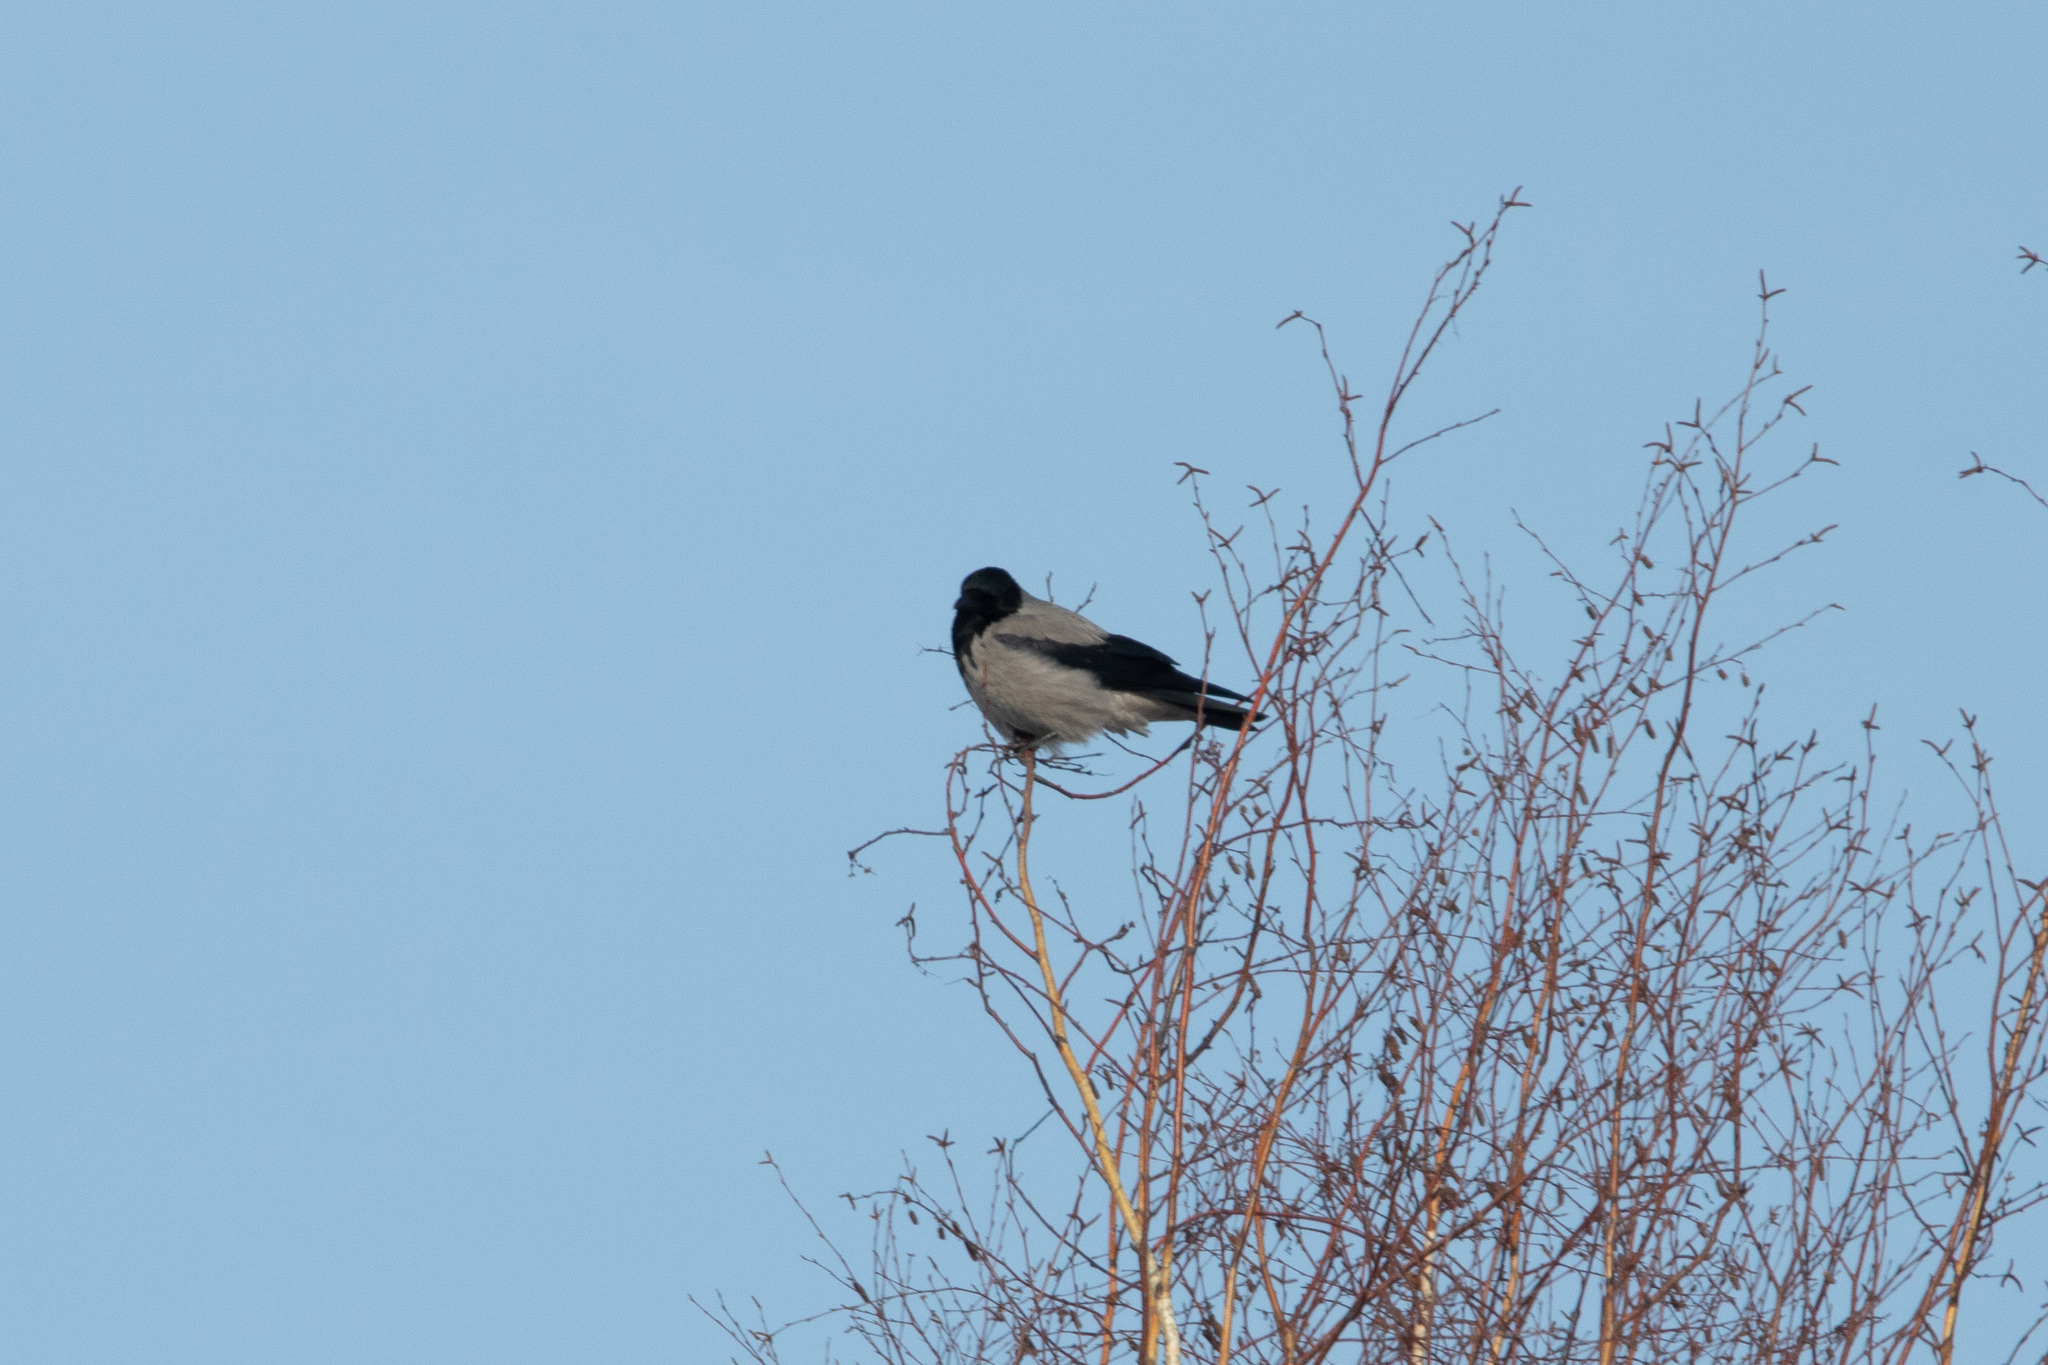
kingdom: Animalia
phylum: Chordata
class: Aves
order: Passeriformes
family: Corvidae
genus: Corvus
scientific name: Corvus cornix
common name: Hooded crow
